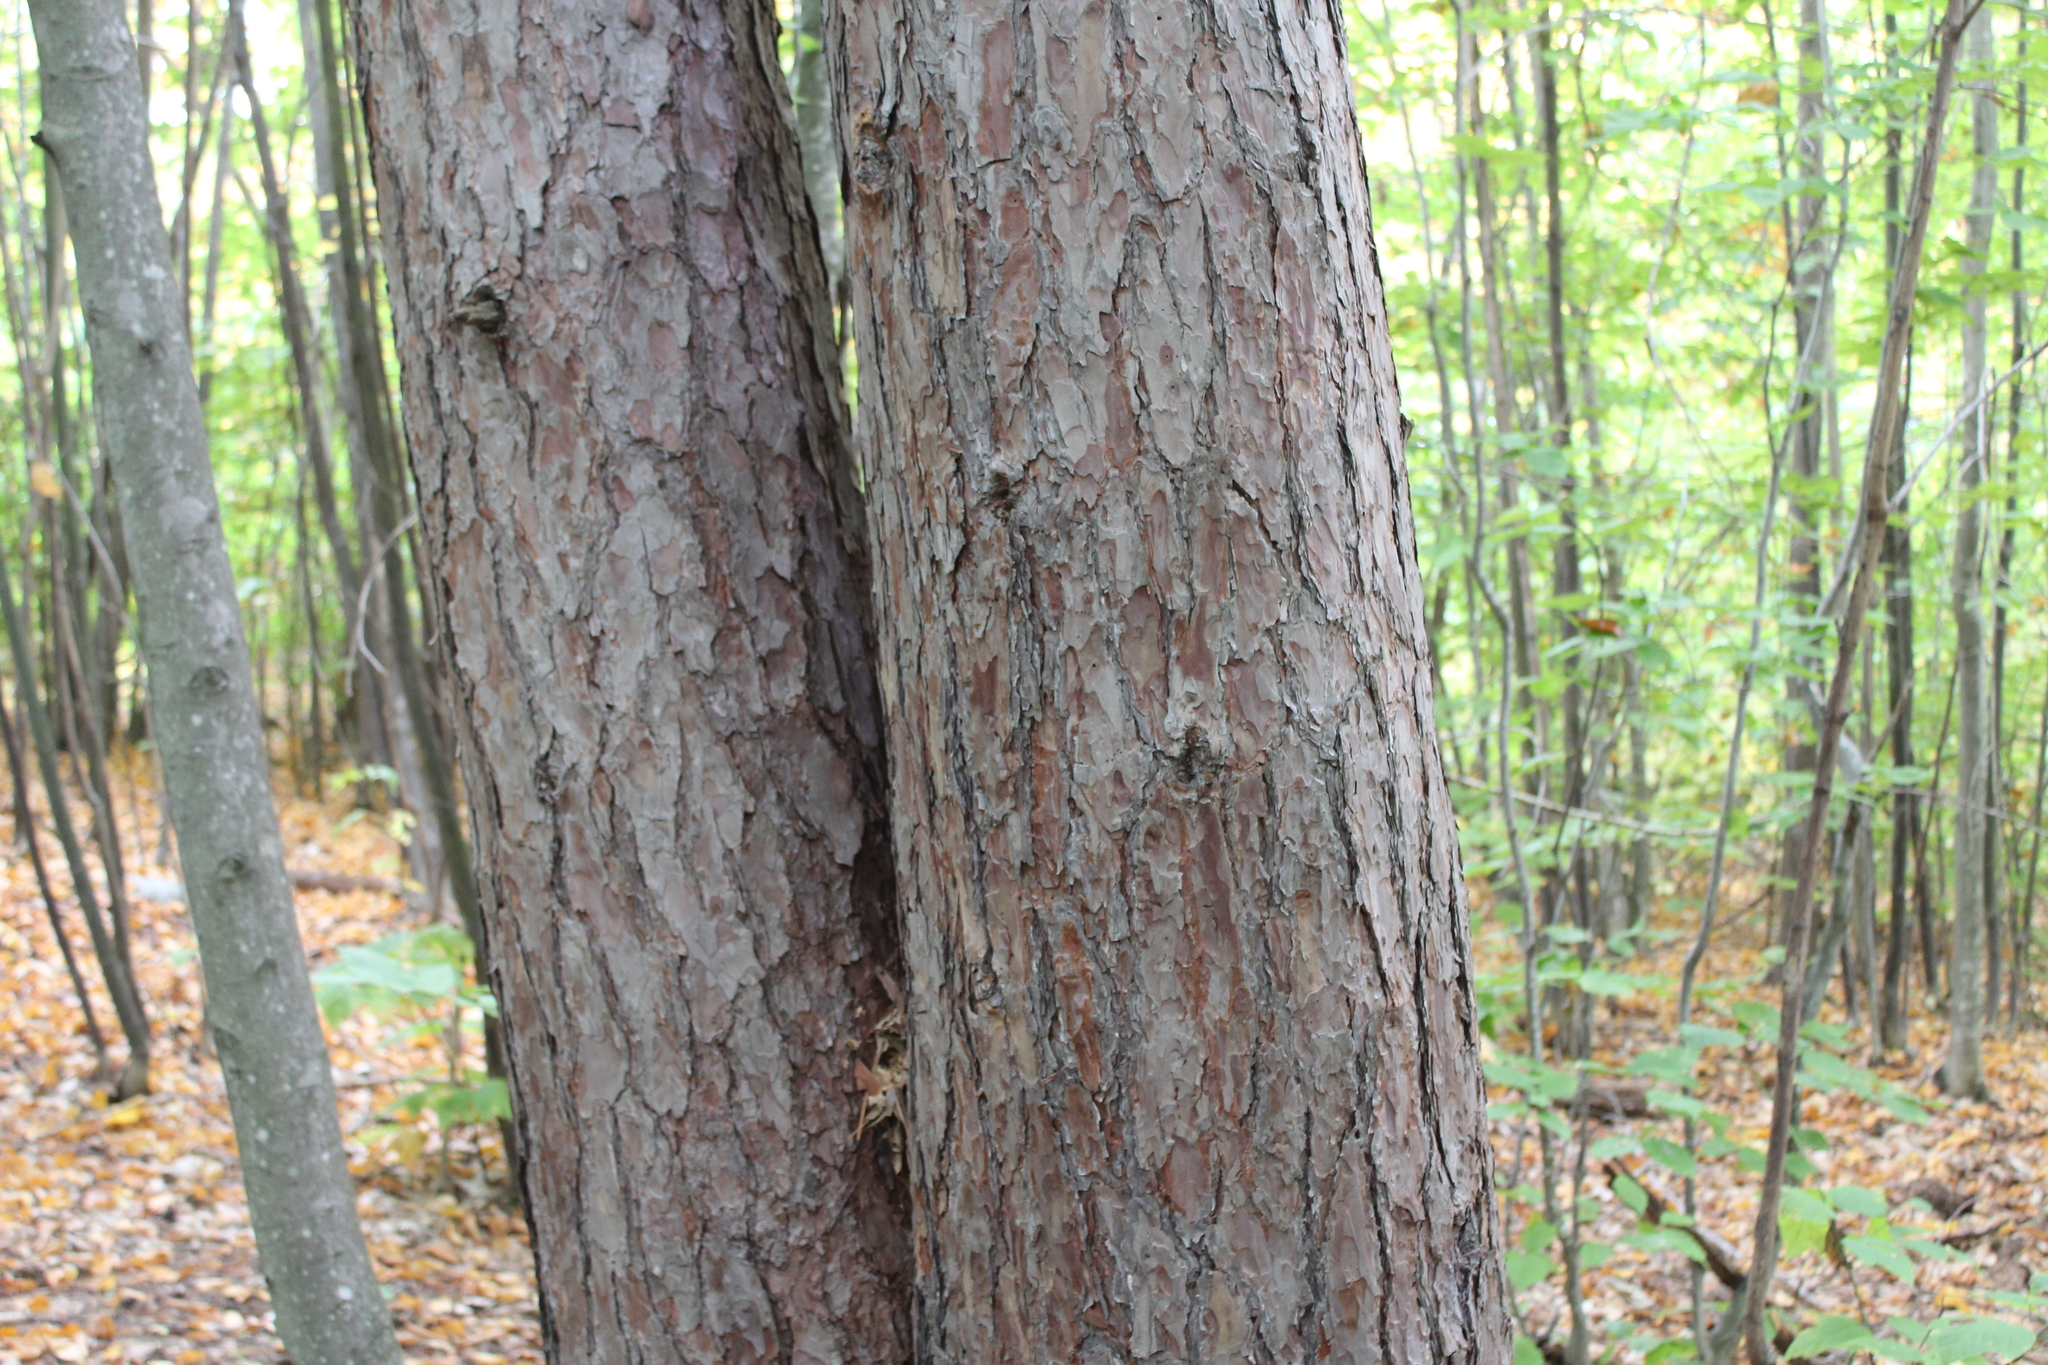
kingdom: Plantae
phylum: Tracheophyta
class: Pinopsida
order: Pinales
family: Pinaceae
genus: Pinus
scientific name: Pinus resinosa
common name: Norway pine
